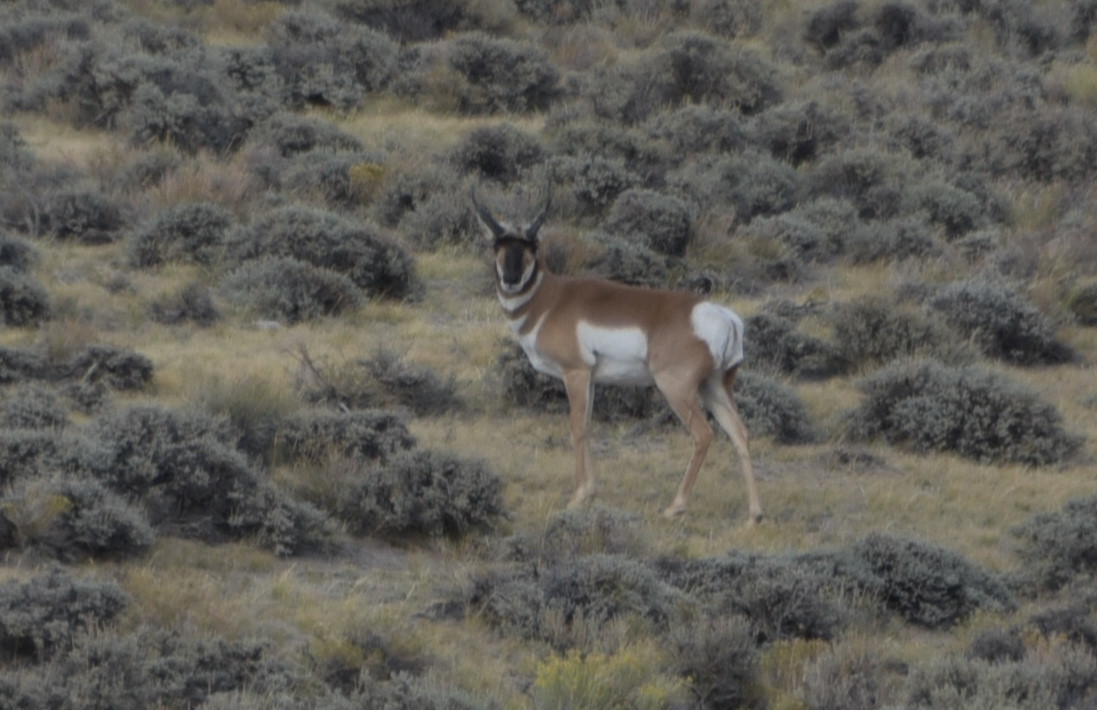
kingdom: Animalia
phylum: Chordata
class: Mammalia
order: Artiodactyla
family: Antilocapridae
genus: Antilocapra
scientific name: Antilocapra americana
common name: Pronghorn
